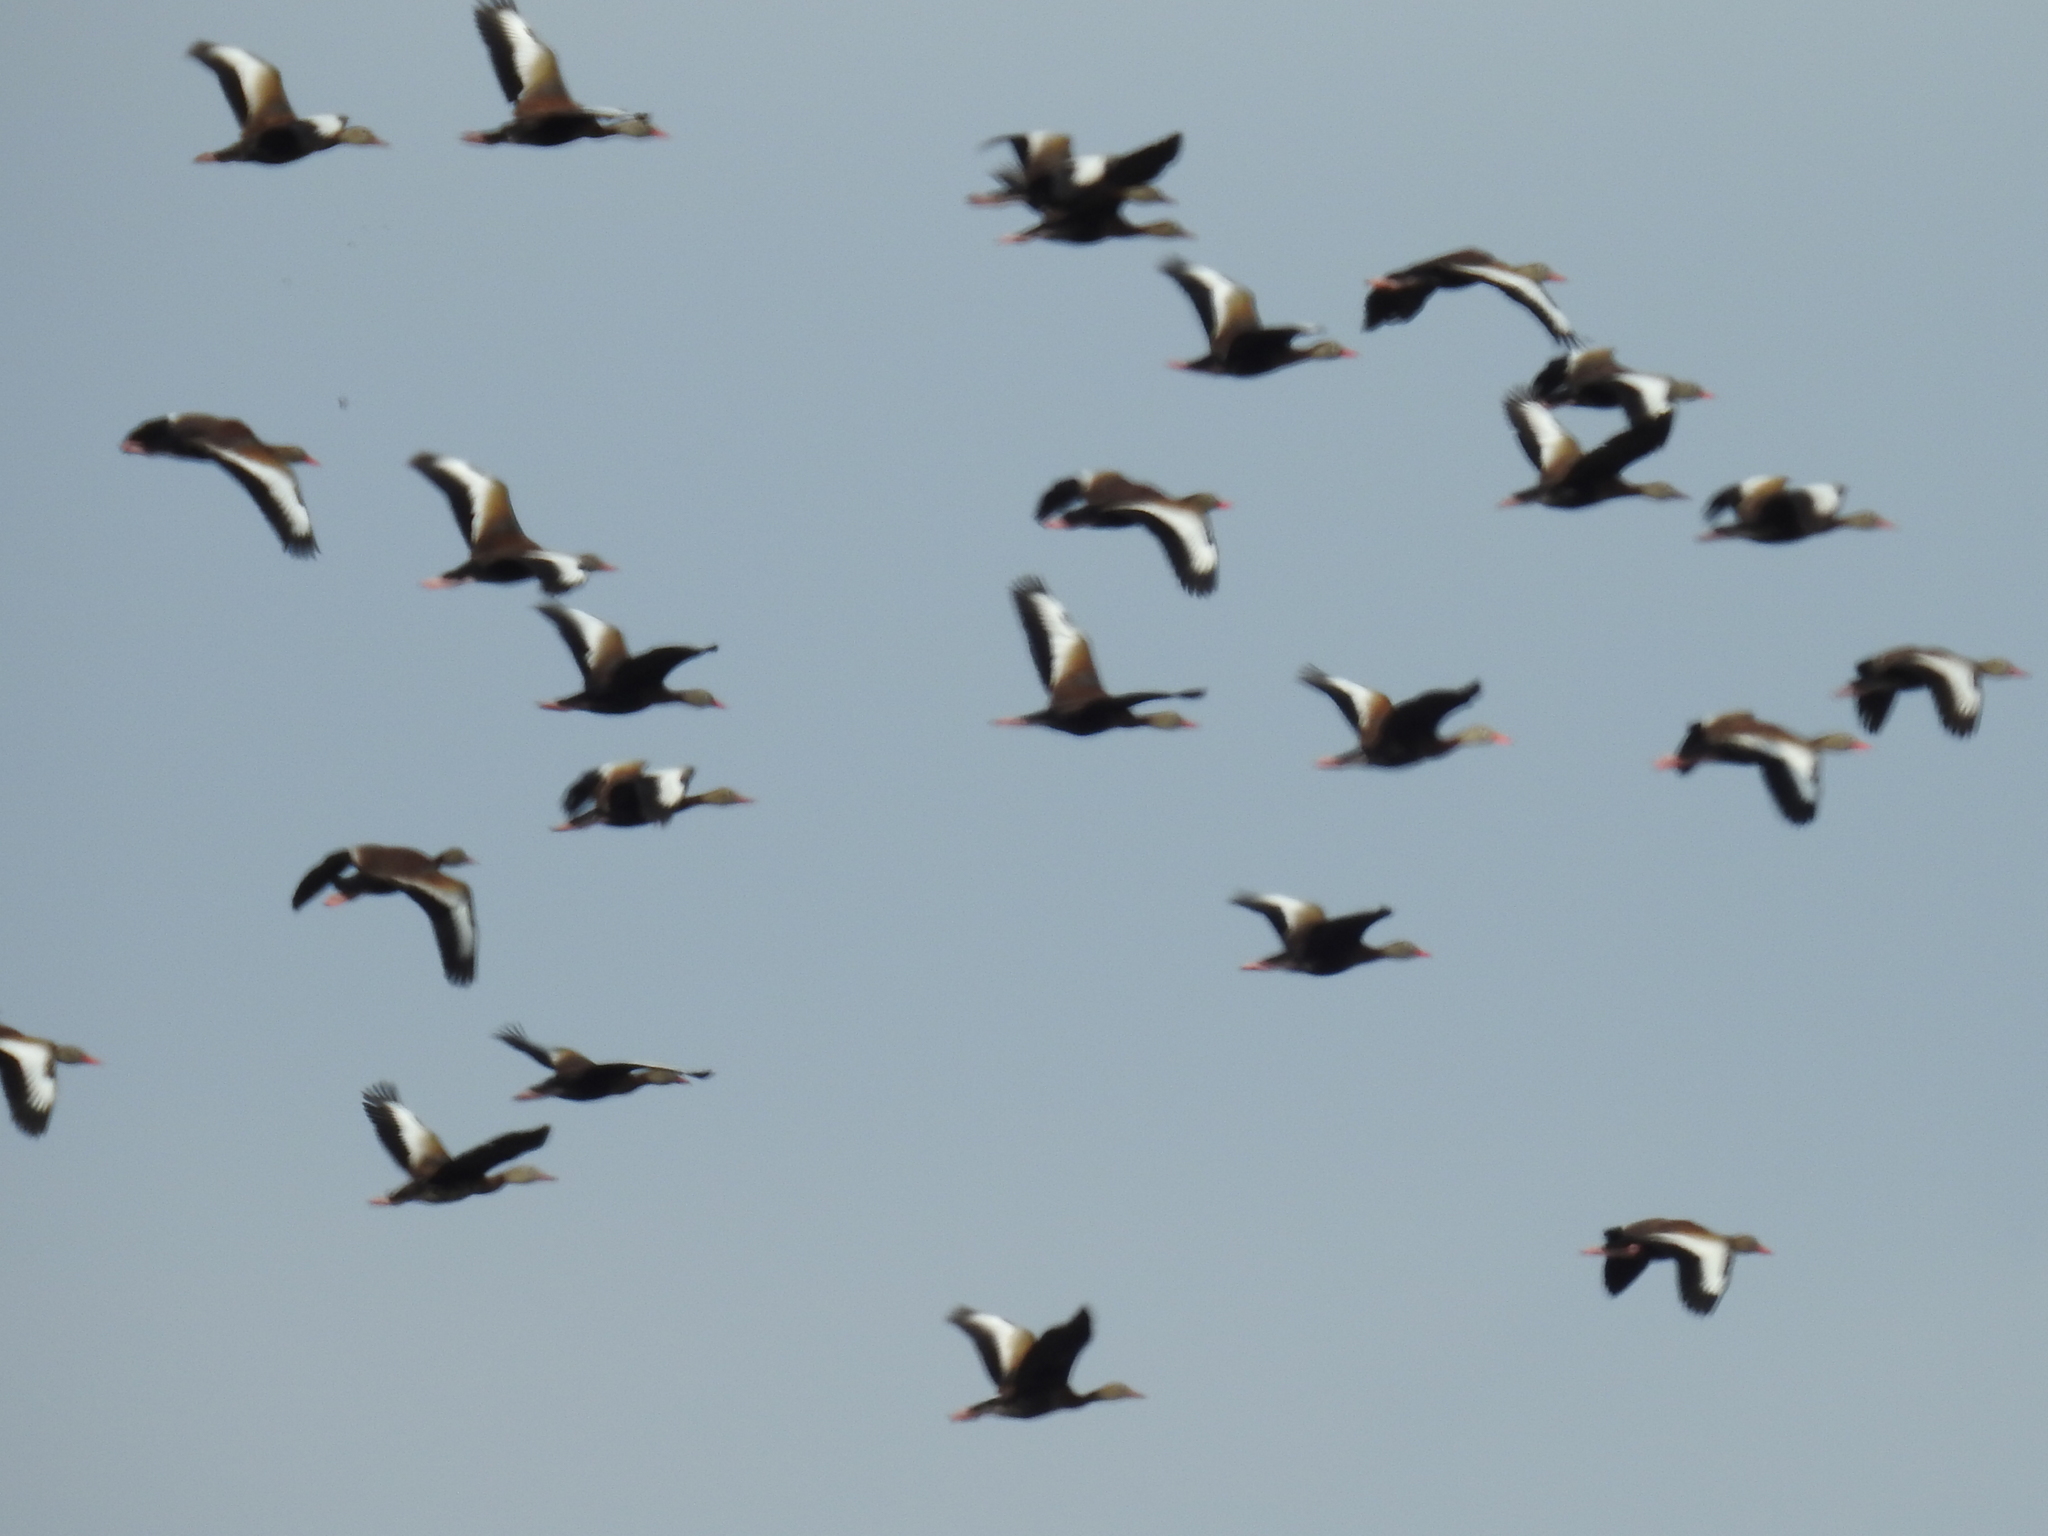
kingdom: Animalia
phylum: Chordata
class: Aves
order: Anseriformes
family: Anatidae
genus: Dendrocygna
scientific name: Dendrocygna autumnalis
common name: Black-bellied whistling duck
